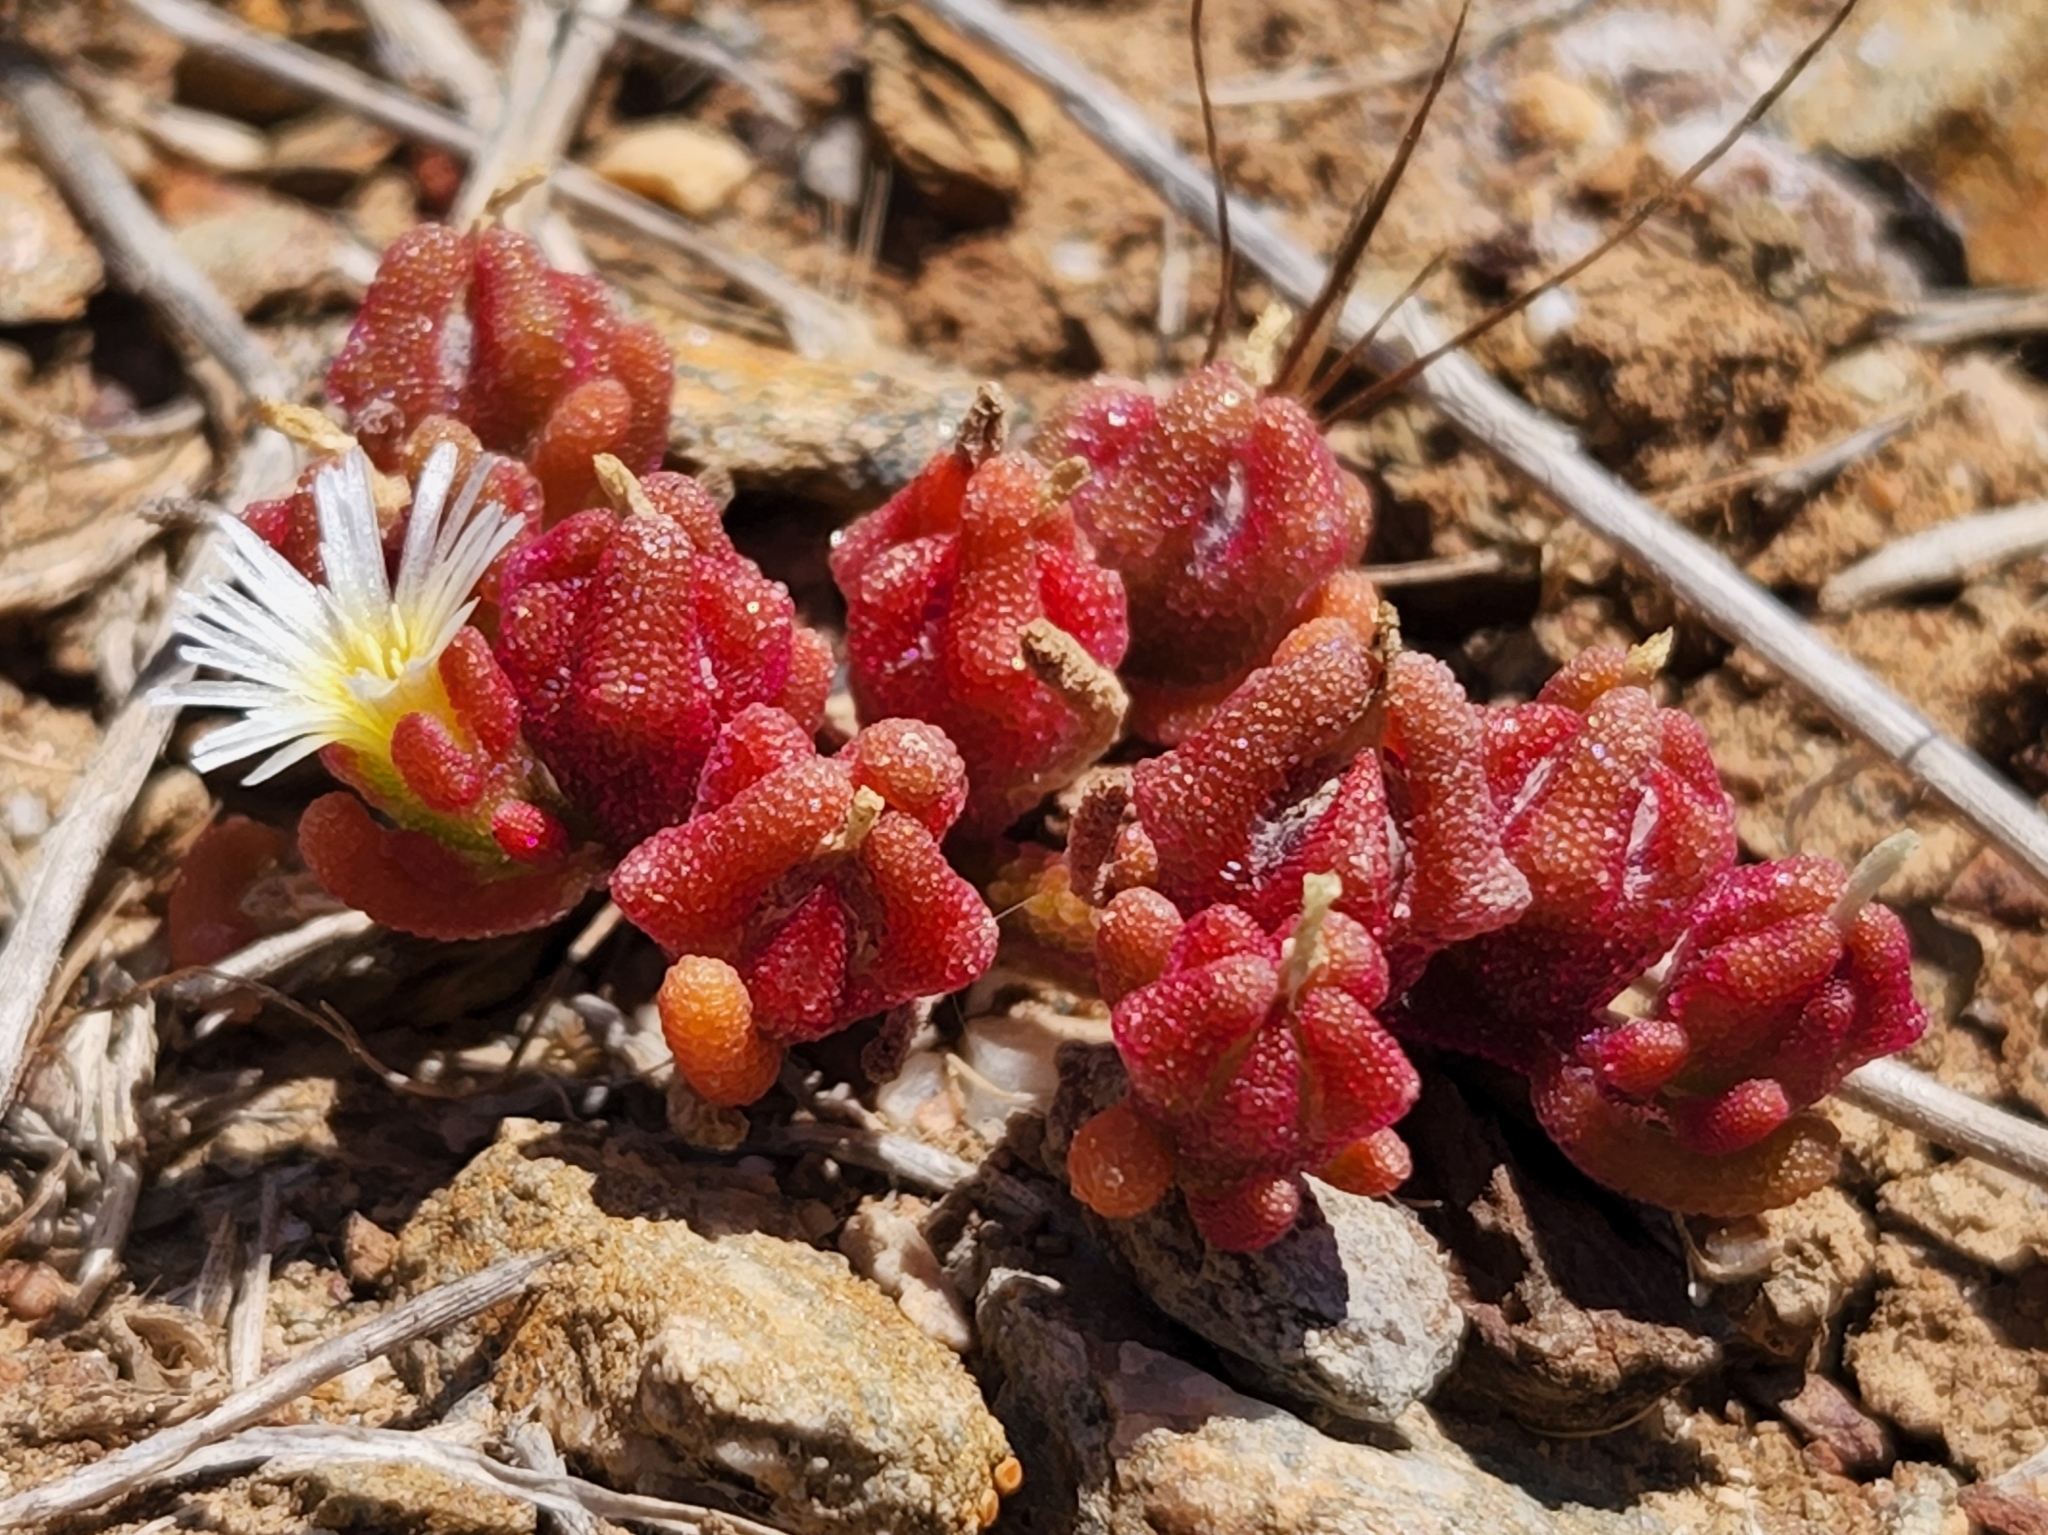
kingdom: Plantae
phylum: Tracheophyta
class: Magnoliopsida
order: Caryophyllales
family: Aizoaceae
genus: Mesembryanthemum
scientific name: Mesembryanthemum nodiflorum
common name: Slenderleaf iceplant
